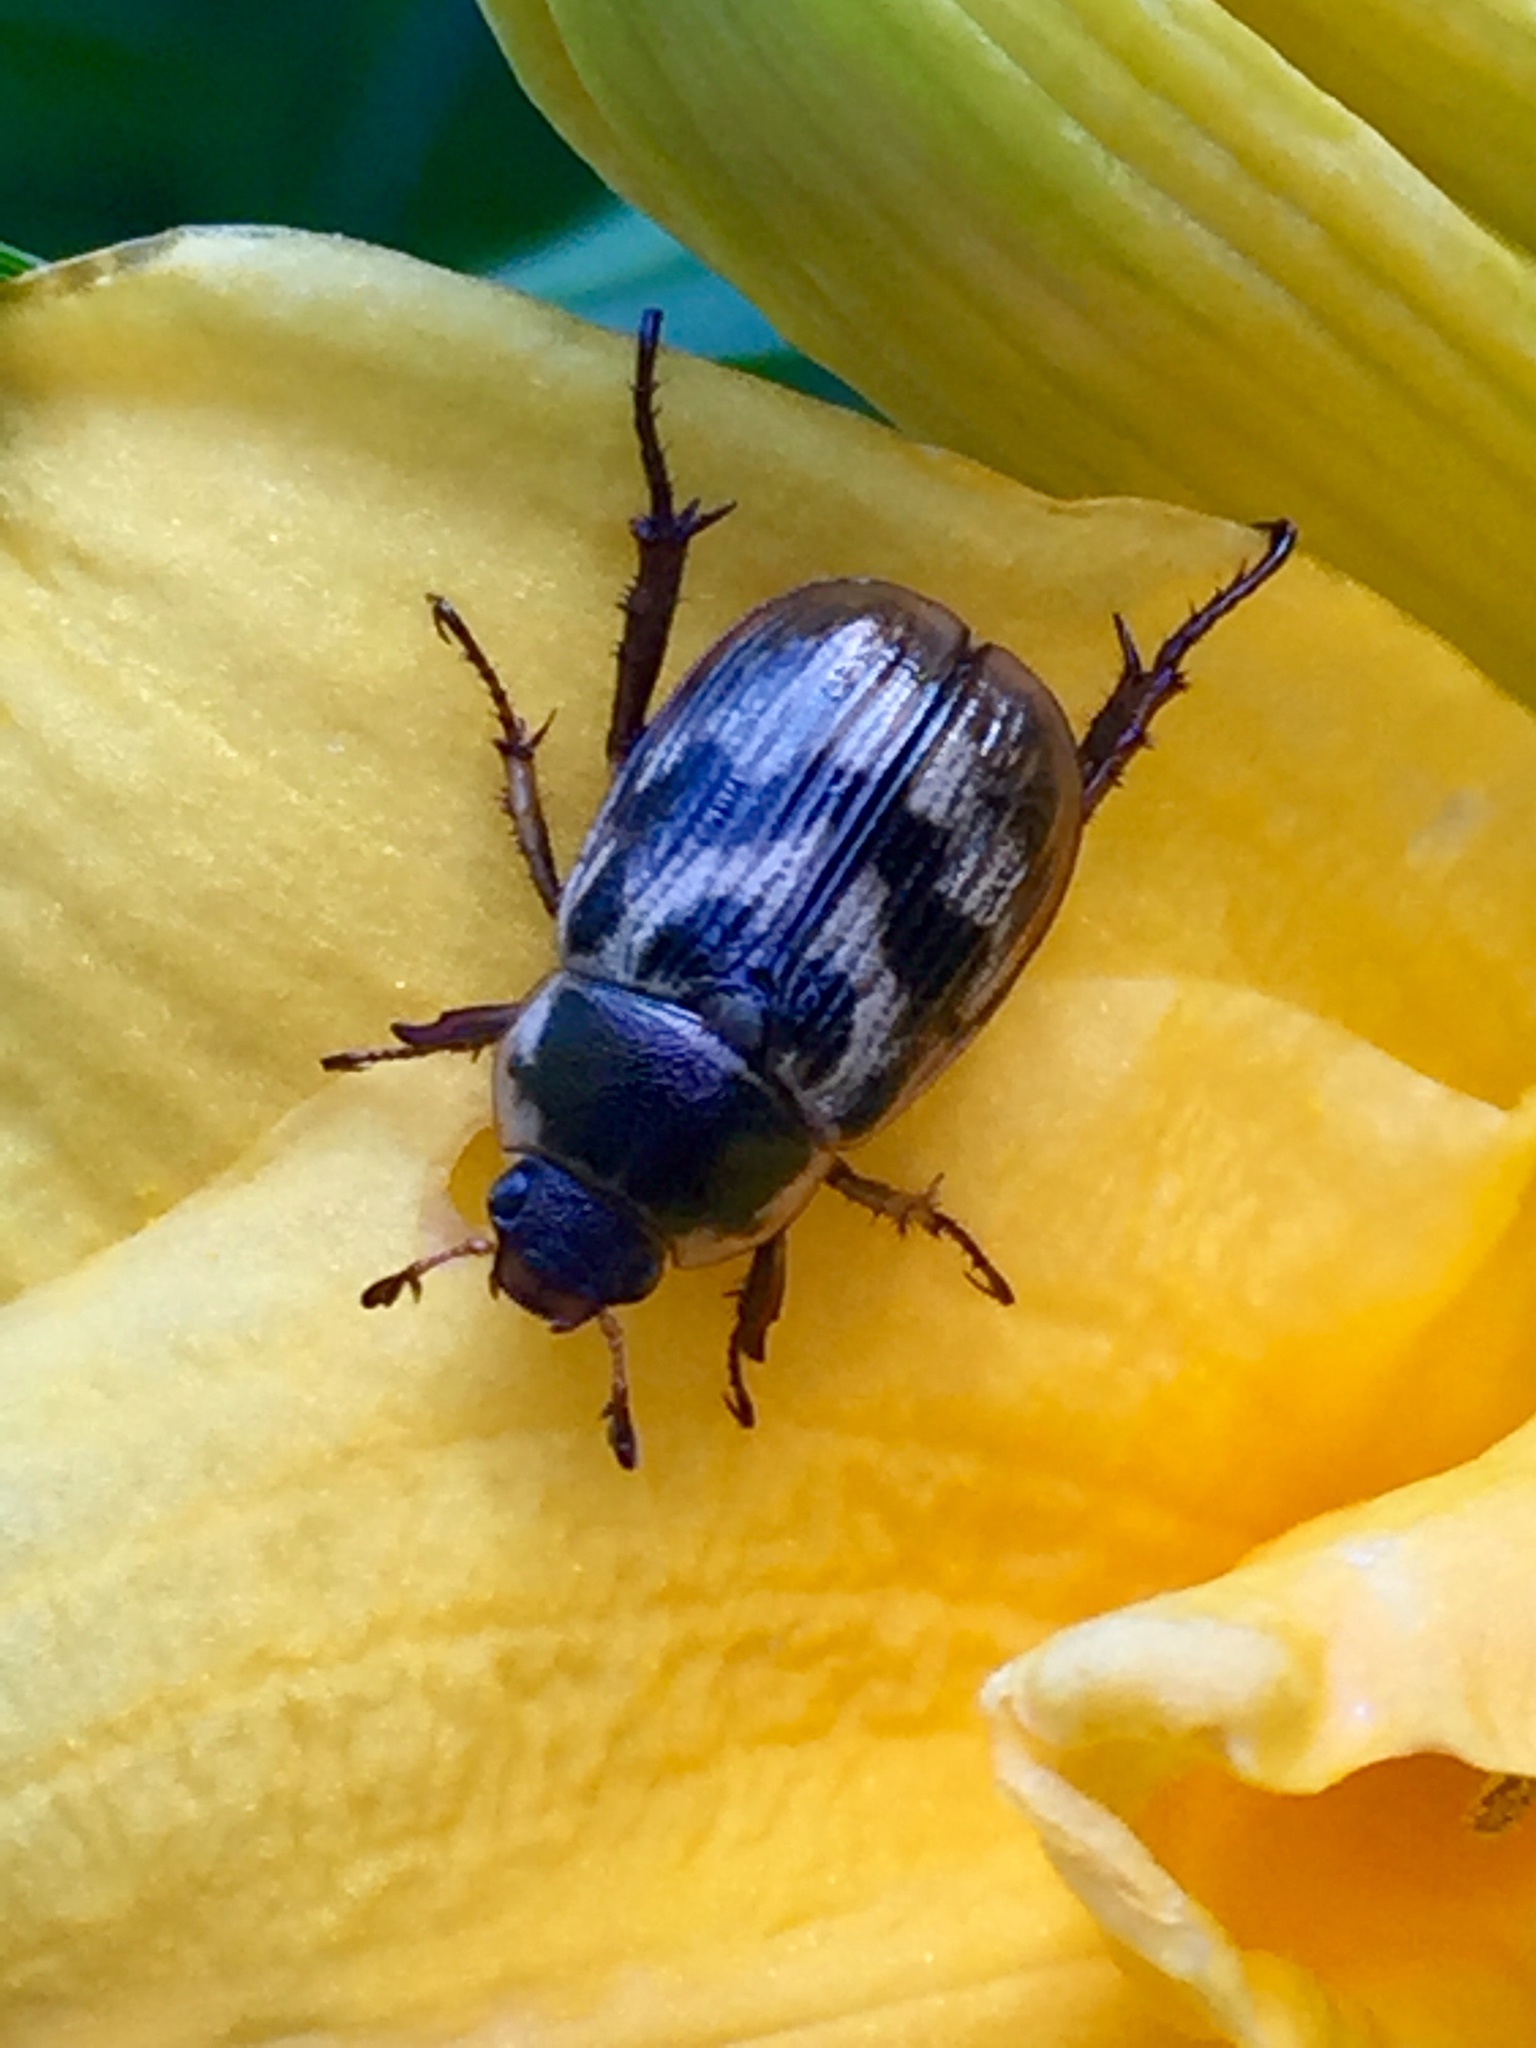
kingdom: Animalia
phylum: Arthropoda
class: Insecta
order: Coleoptera
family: Scarabaeidae
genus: Exomala
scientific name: Exomala orientalis
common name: Oriental beetle
